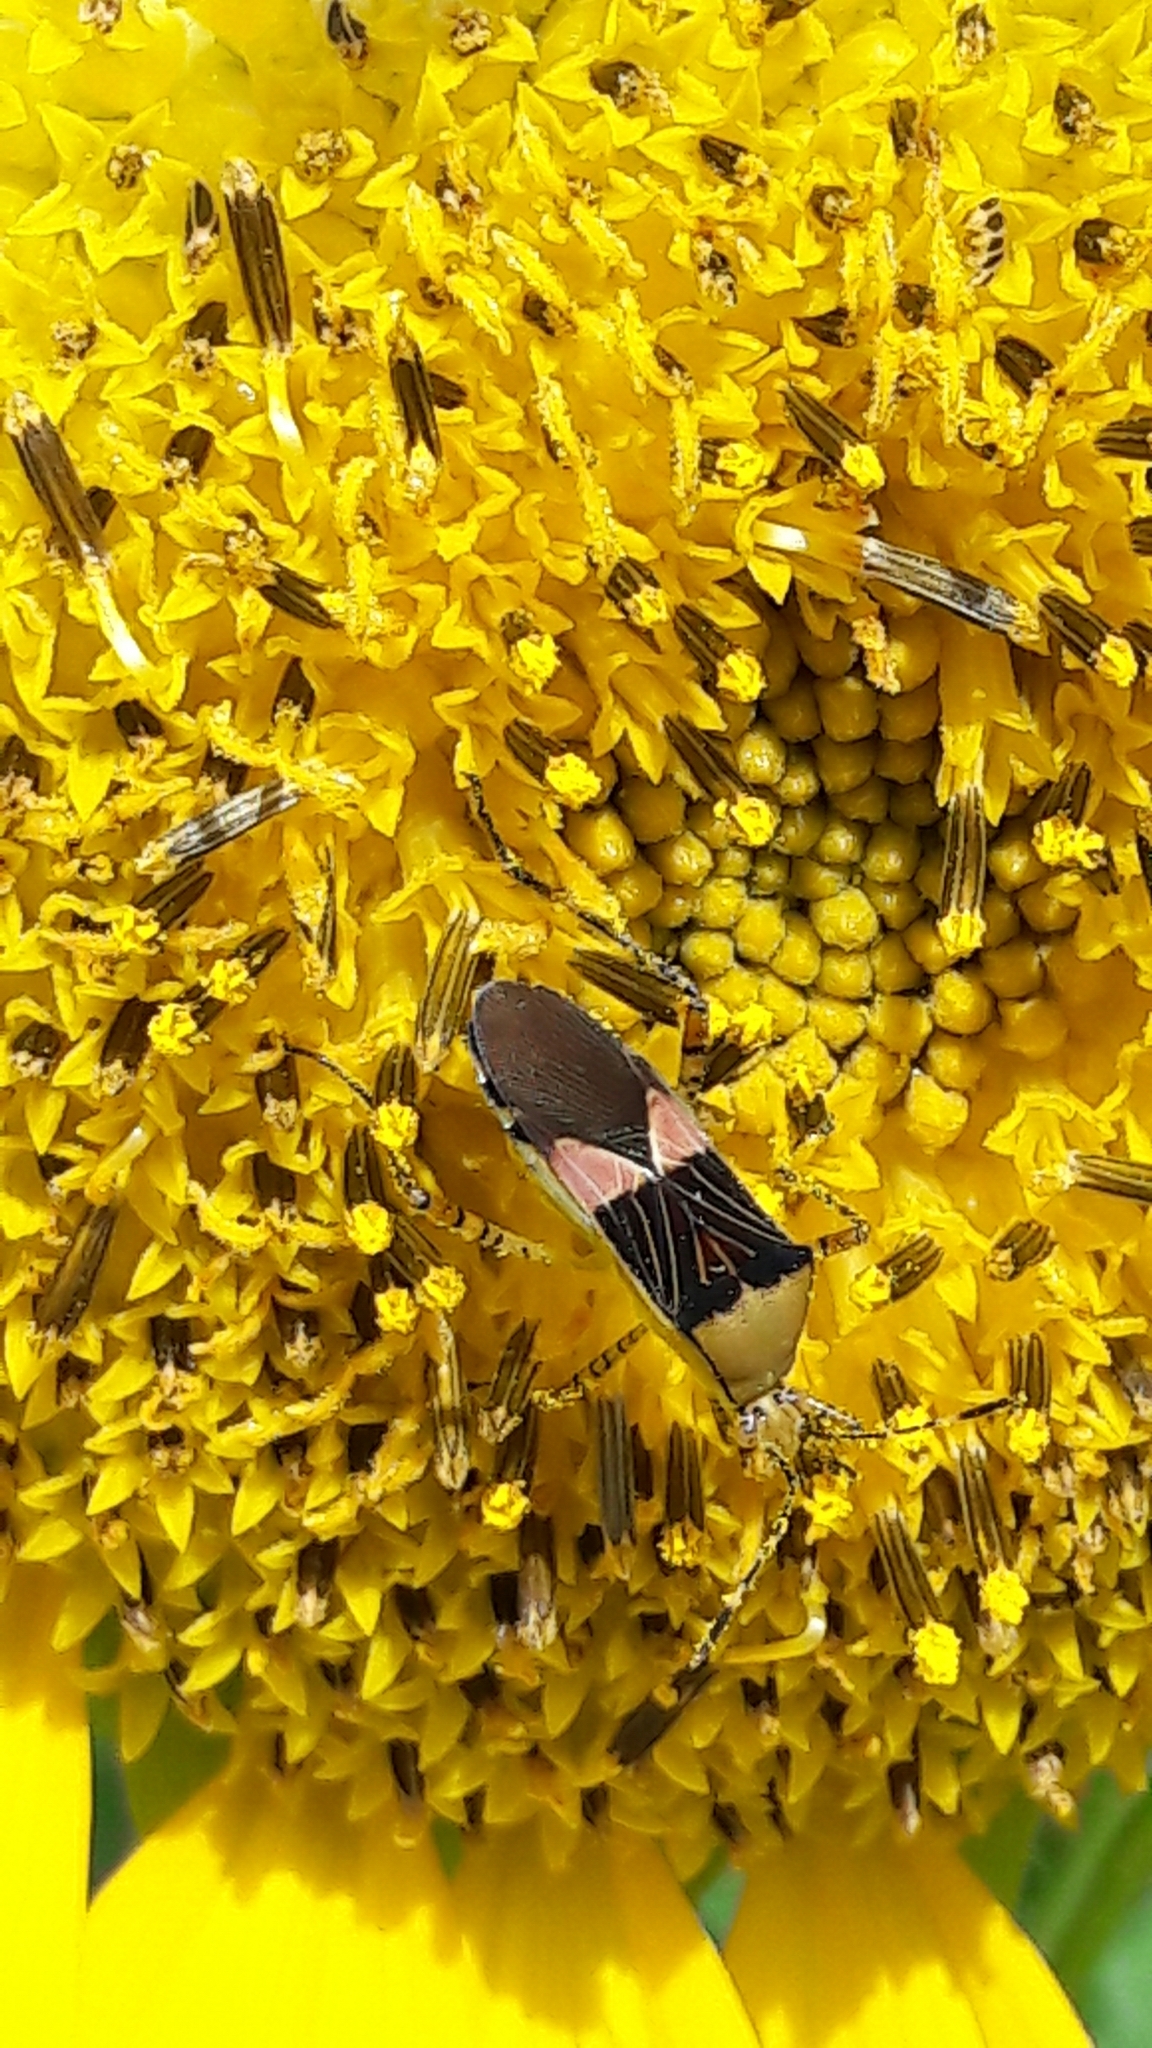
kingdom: Animalia
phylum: Arthropoda
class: Insecta
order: Hemiptera
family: Coreidae
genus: Hypselonotus
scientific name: Hypselonotus fulvus
